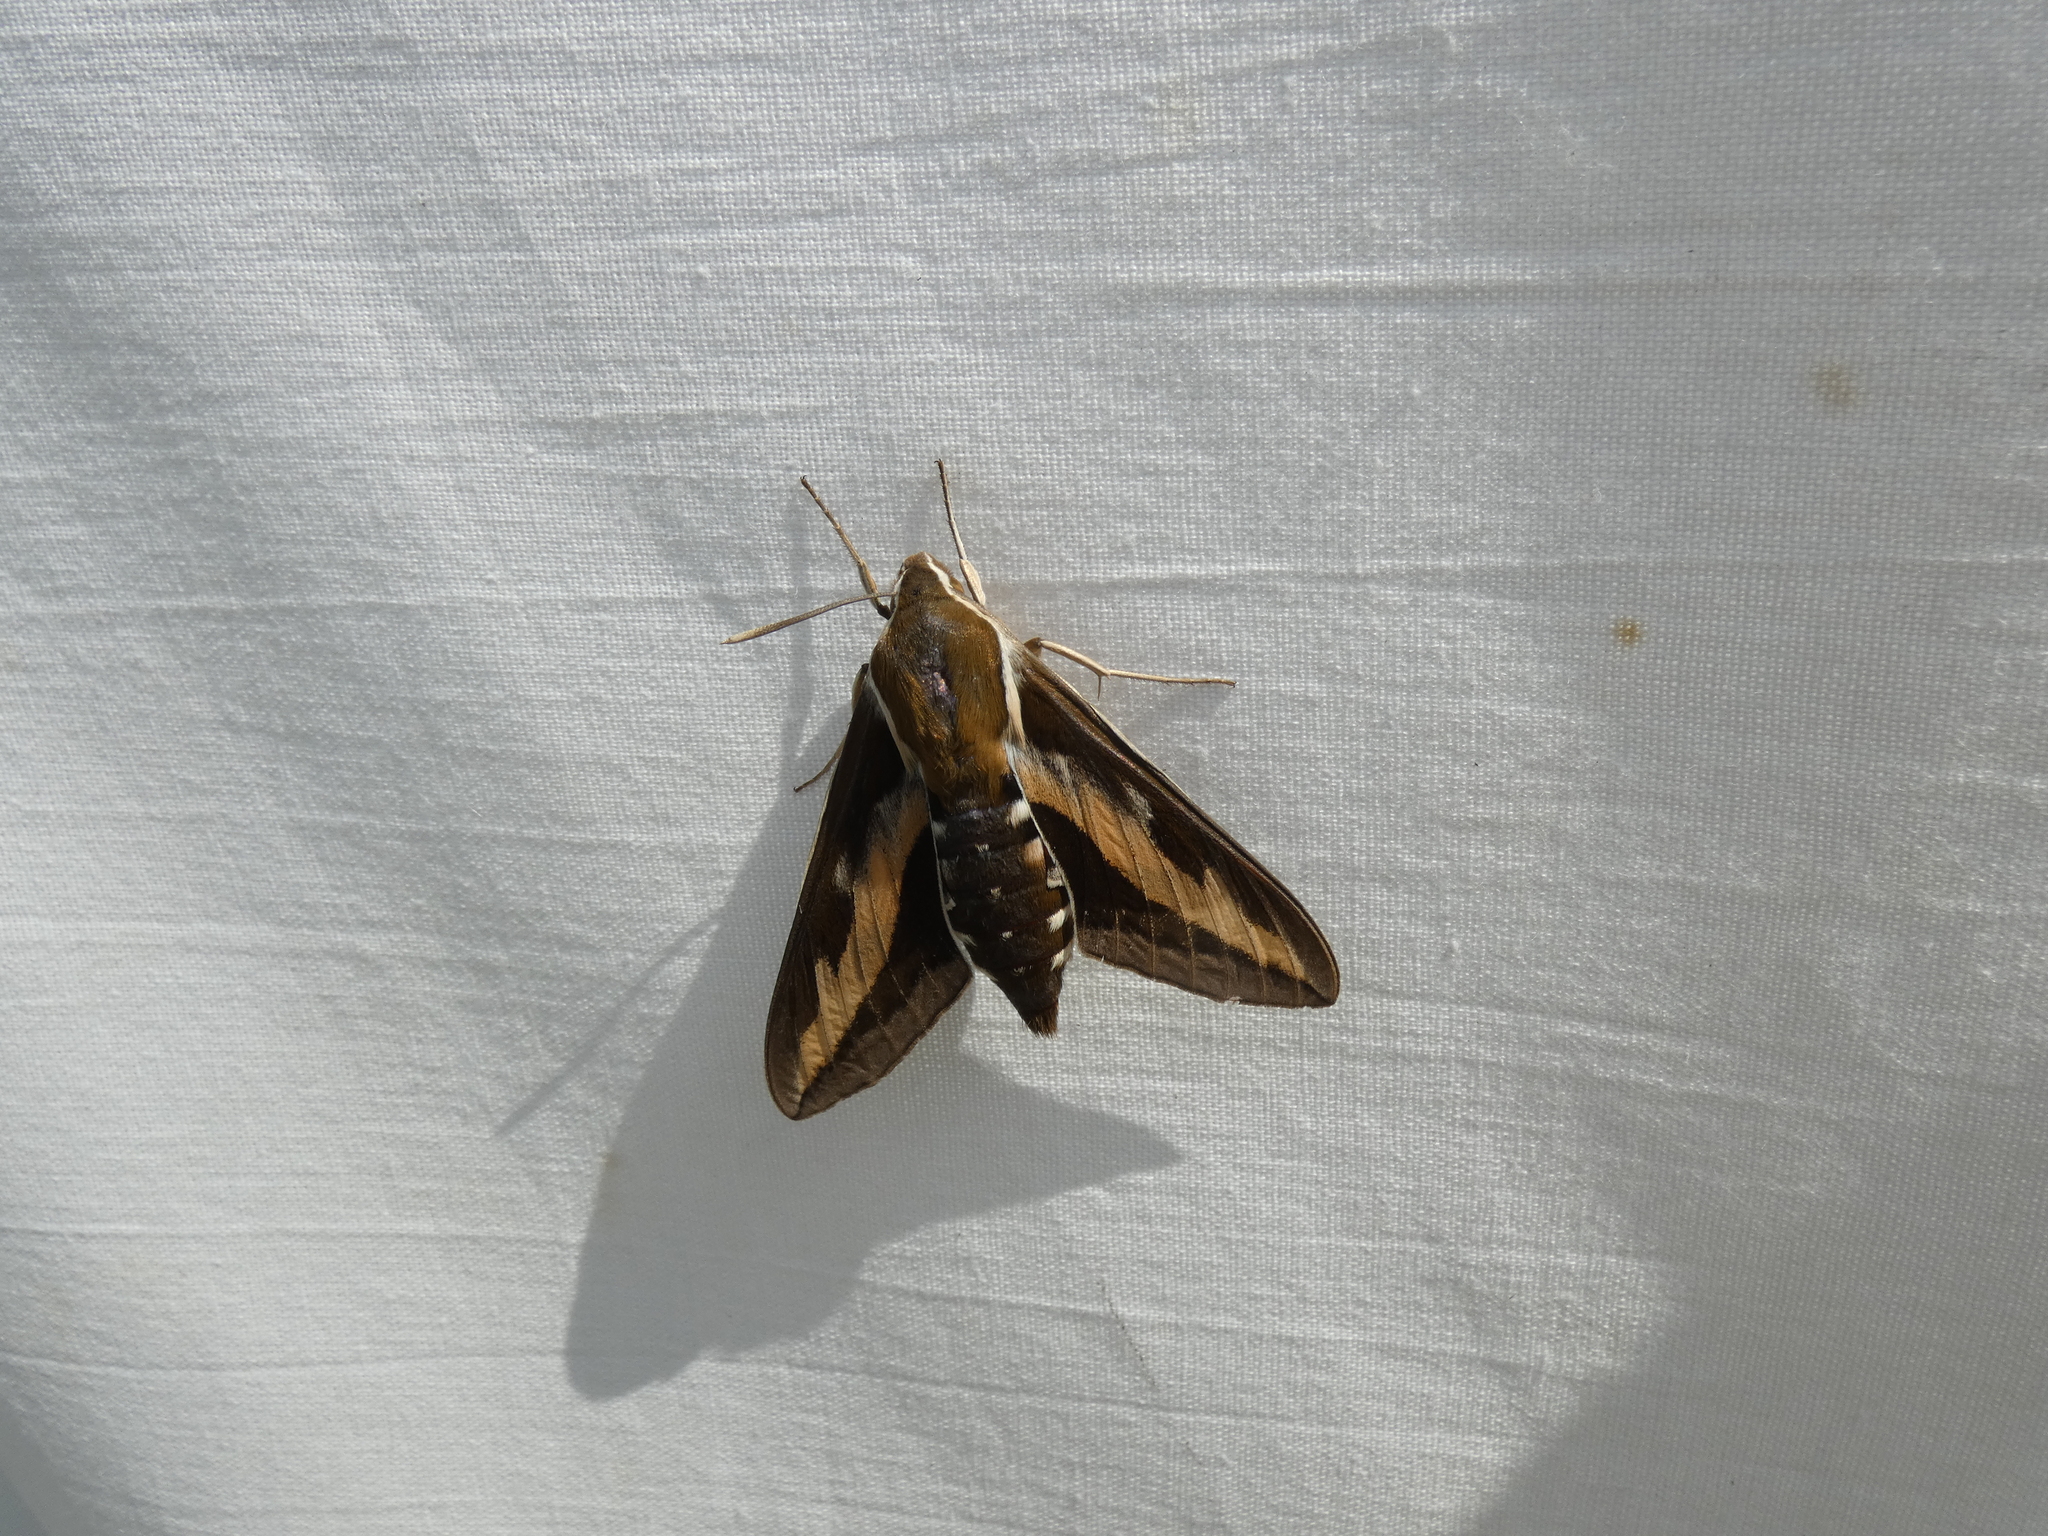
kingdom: Animalia
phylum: Arthropoda
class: Insecta
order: Lepidoptera
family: Sphingidae
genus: Hyles
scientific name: Hyles gallii
